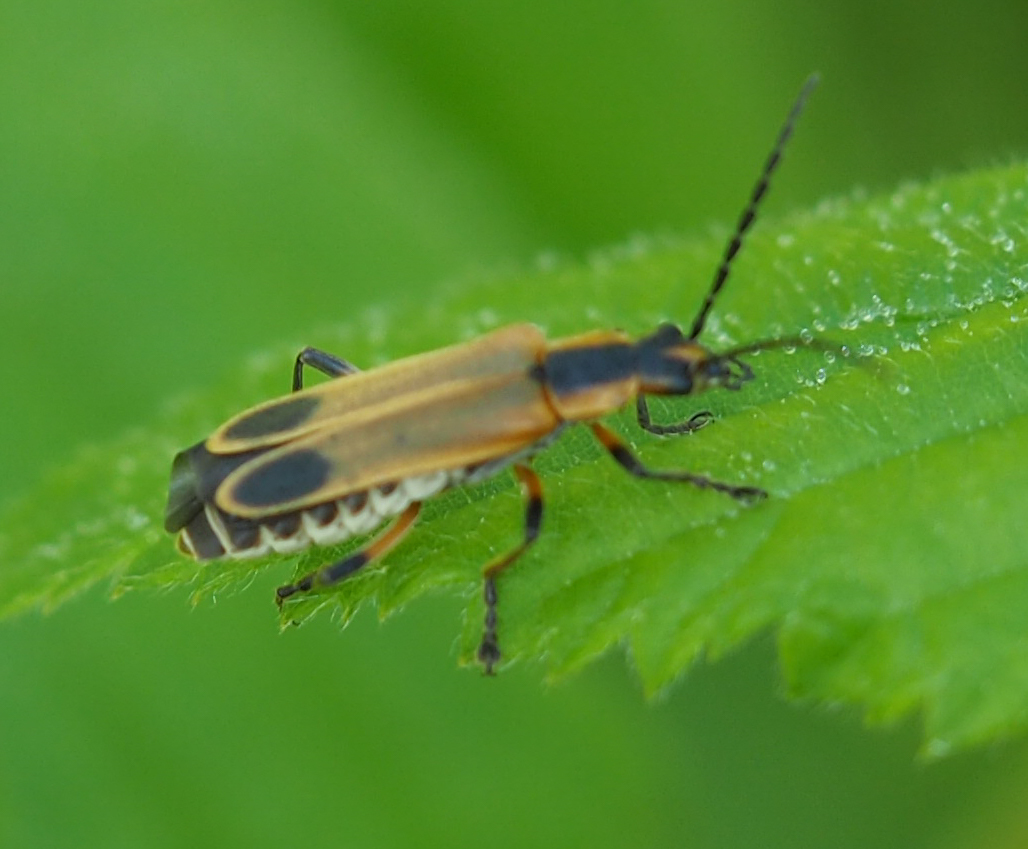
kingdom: Animalia
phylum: Arthropoda
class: Insecta
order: Coleoptera
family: Cantharidae
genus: Chauliognathus
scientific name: Chauliognathus marginatus
